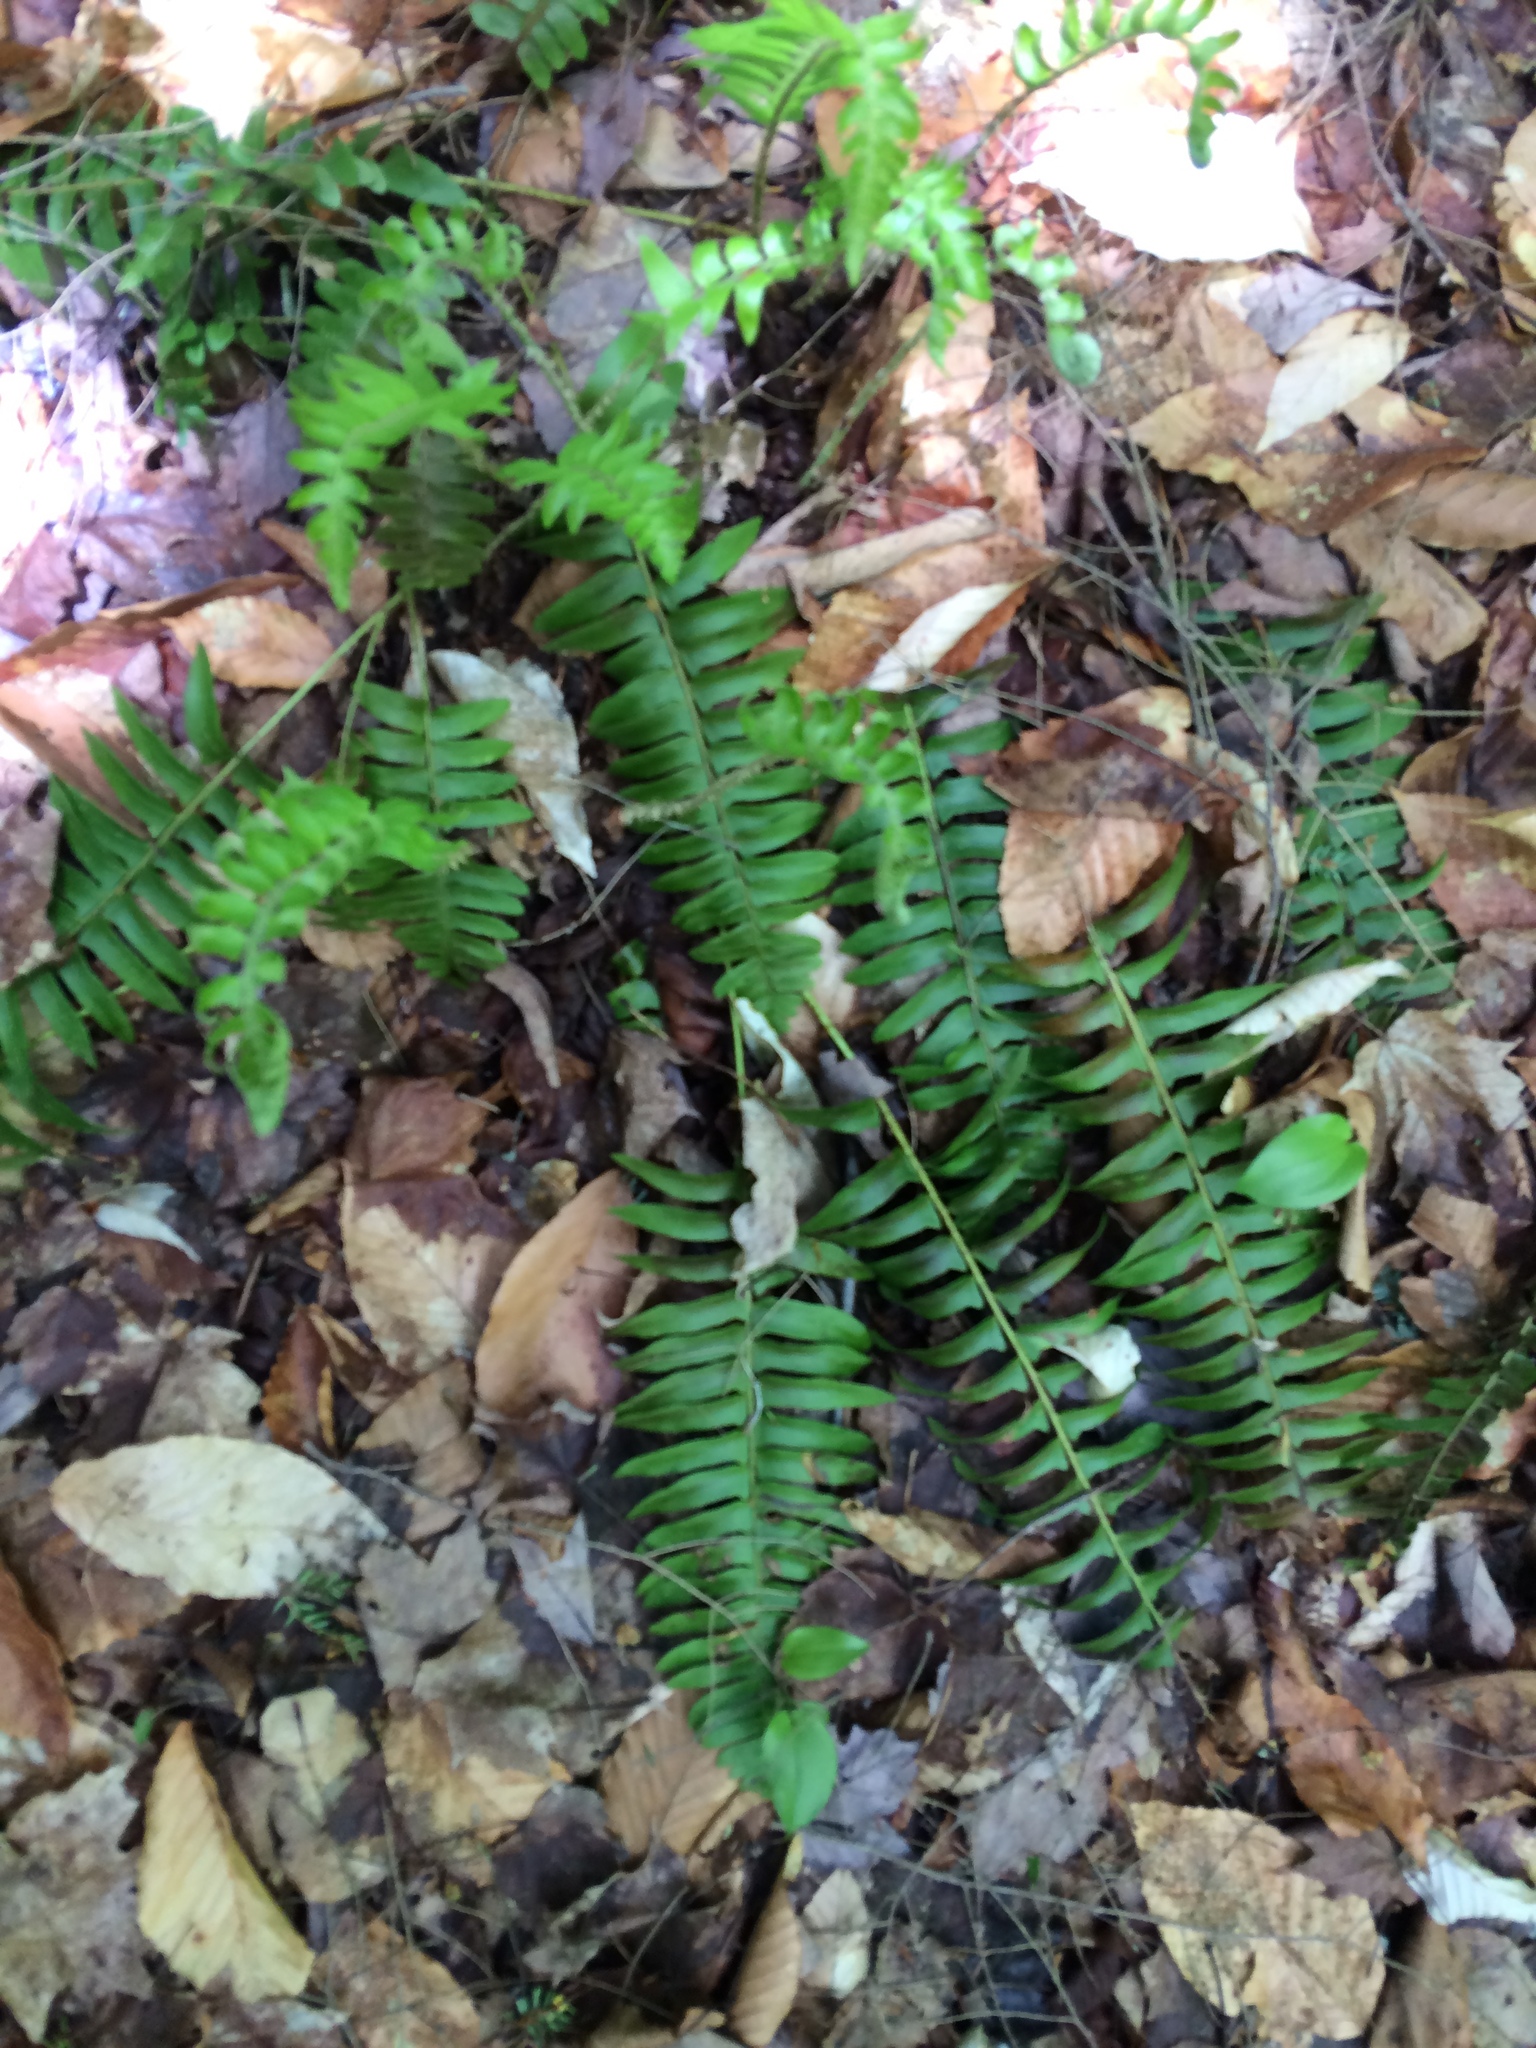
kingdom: Plantae
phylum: Tracheophyta
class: Polypodiopsida
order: Polypodiales
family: Dryopteridaceae
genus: Polystichum
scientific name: Polystichum acrostichoides
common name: Christmas fern
